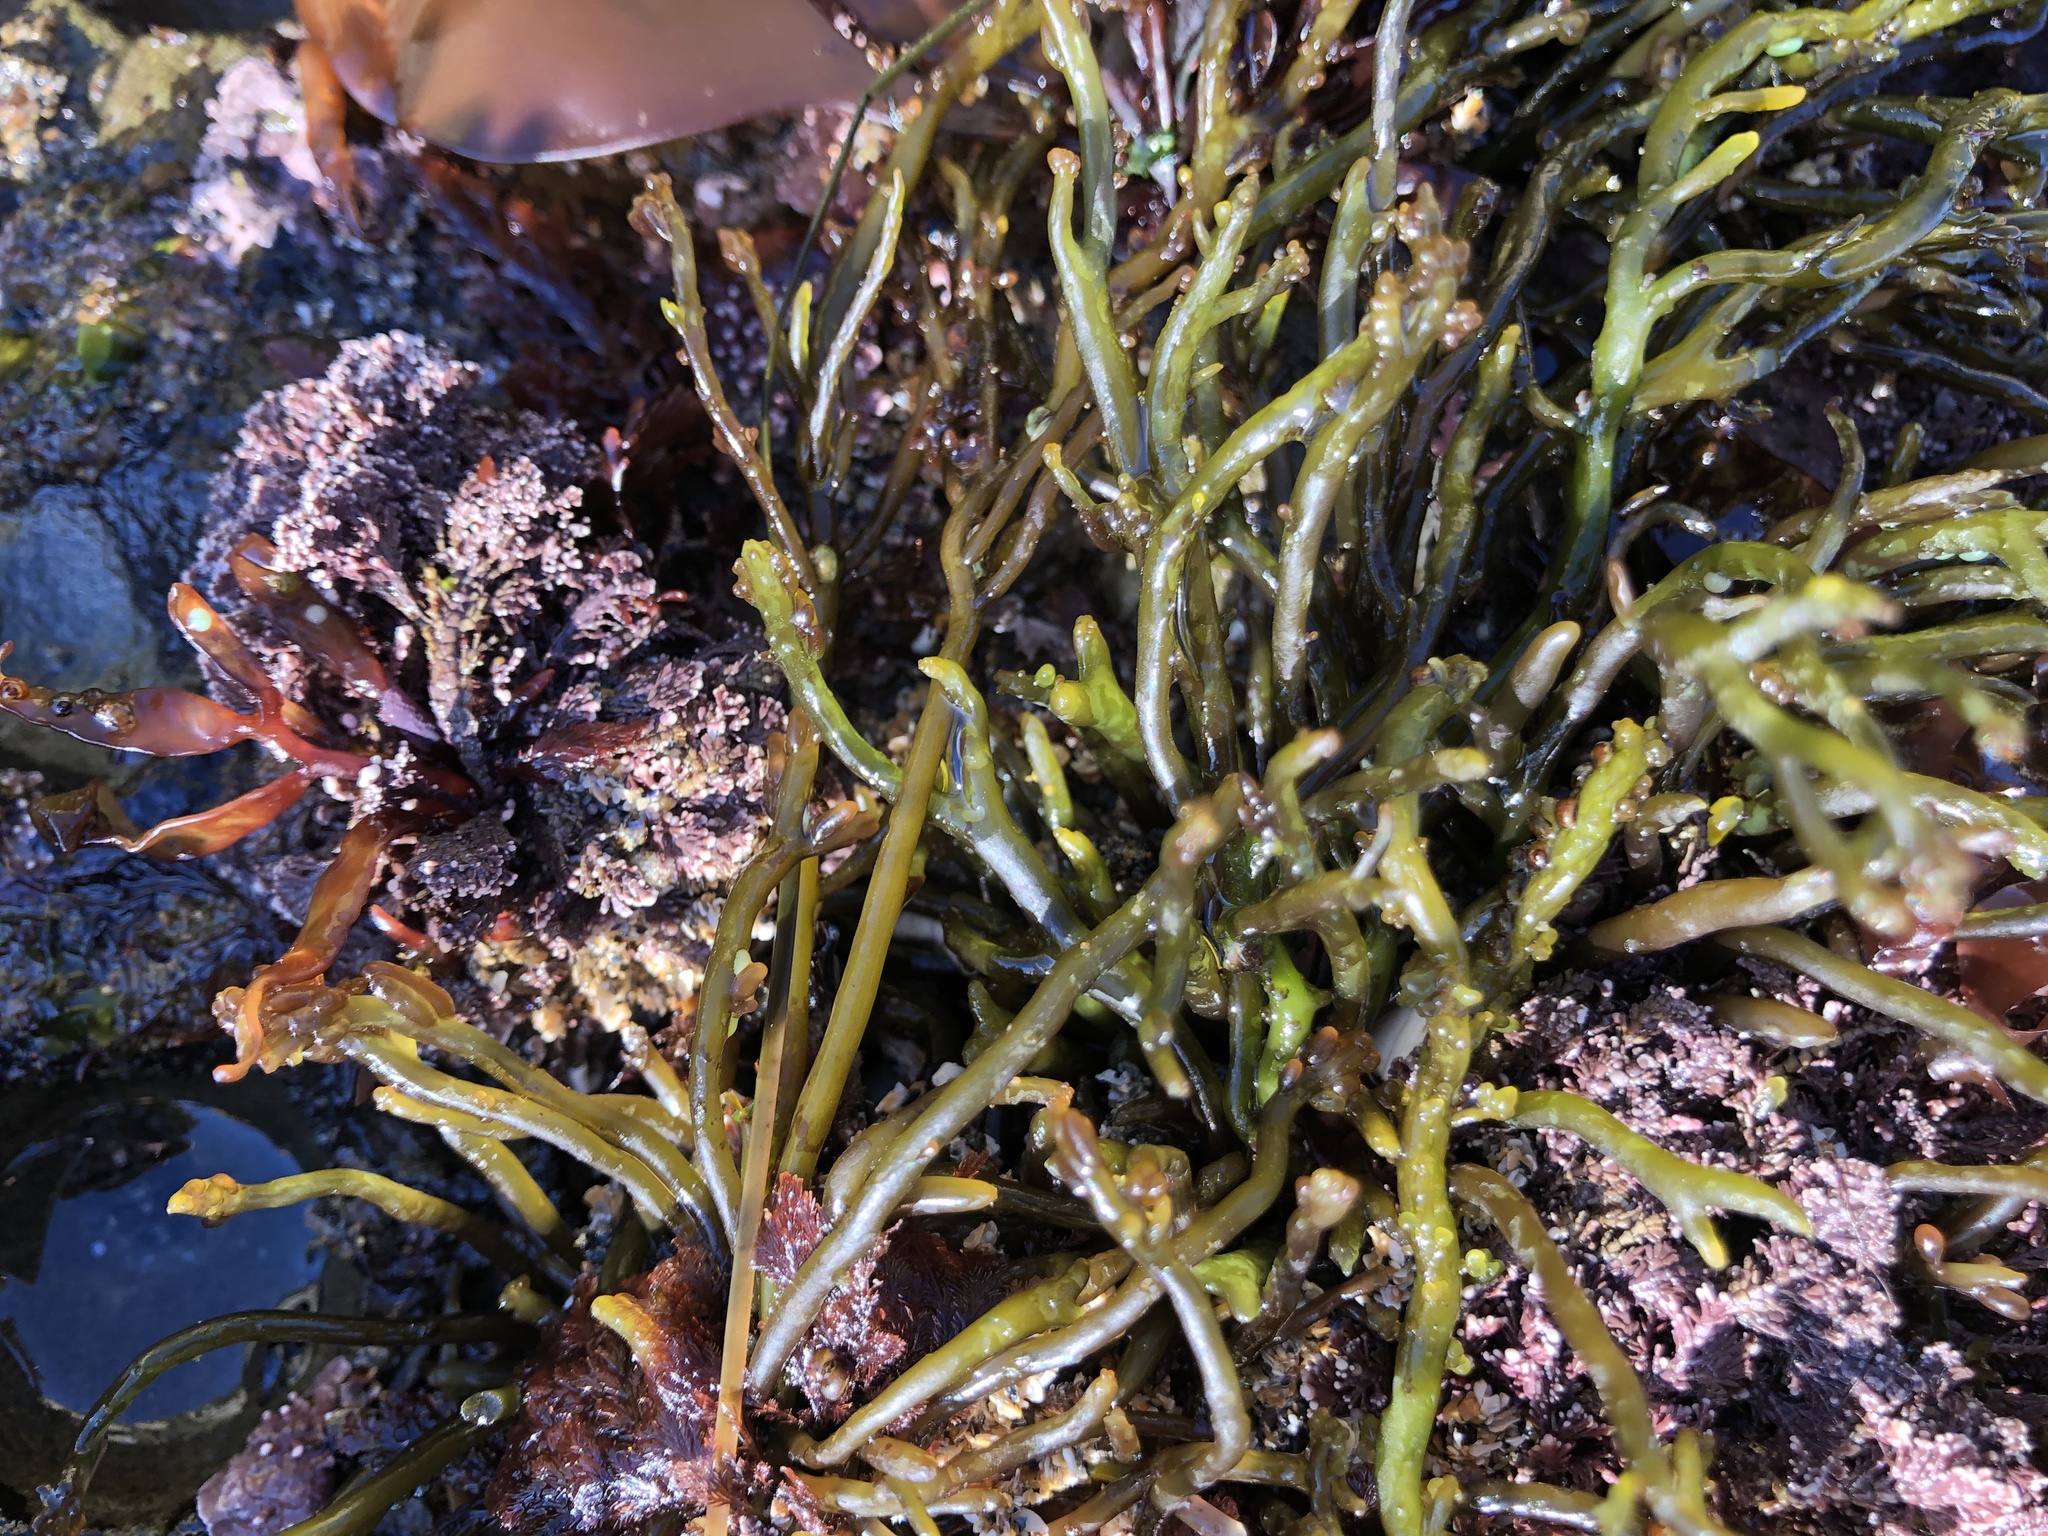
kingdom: Plantae
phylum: Rhodophyta
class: Florideophyceae
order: Rhodymeniales
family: Champiaceae
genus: Neogastroclonium
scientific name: Neogastroclonium subarticulatum
